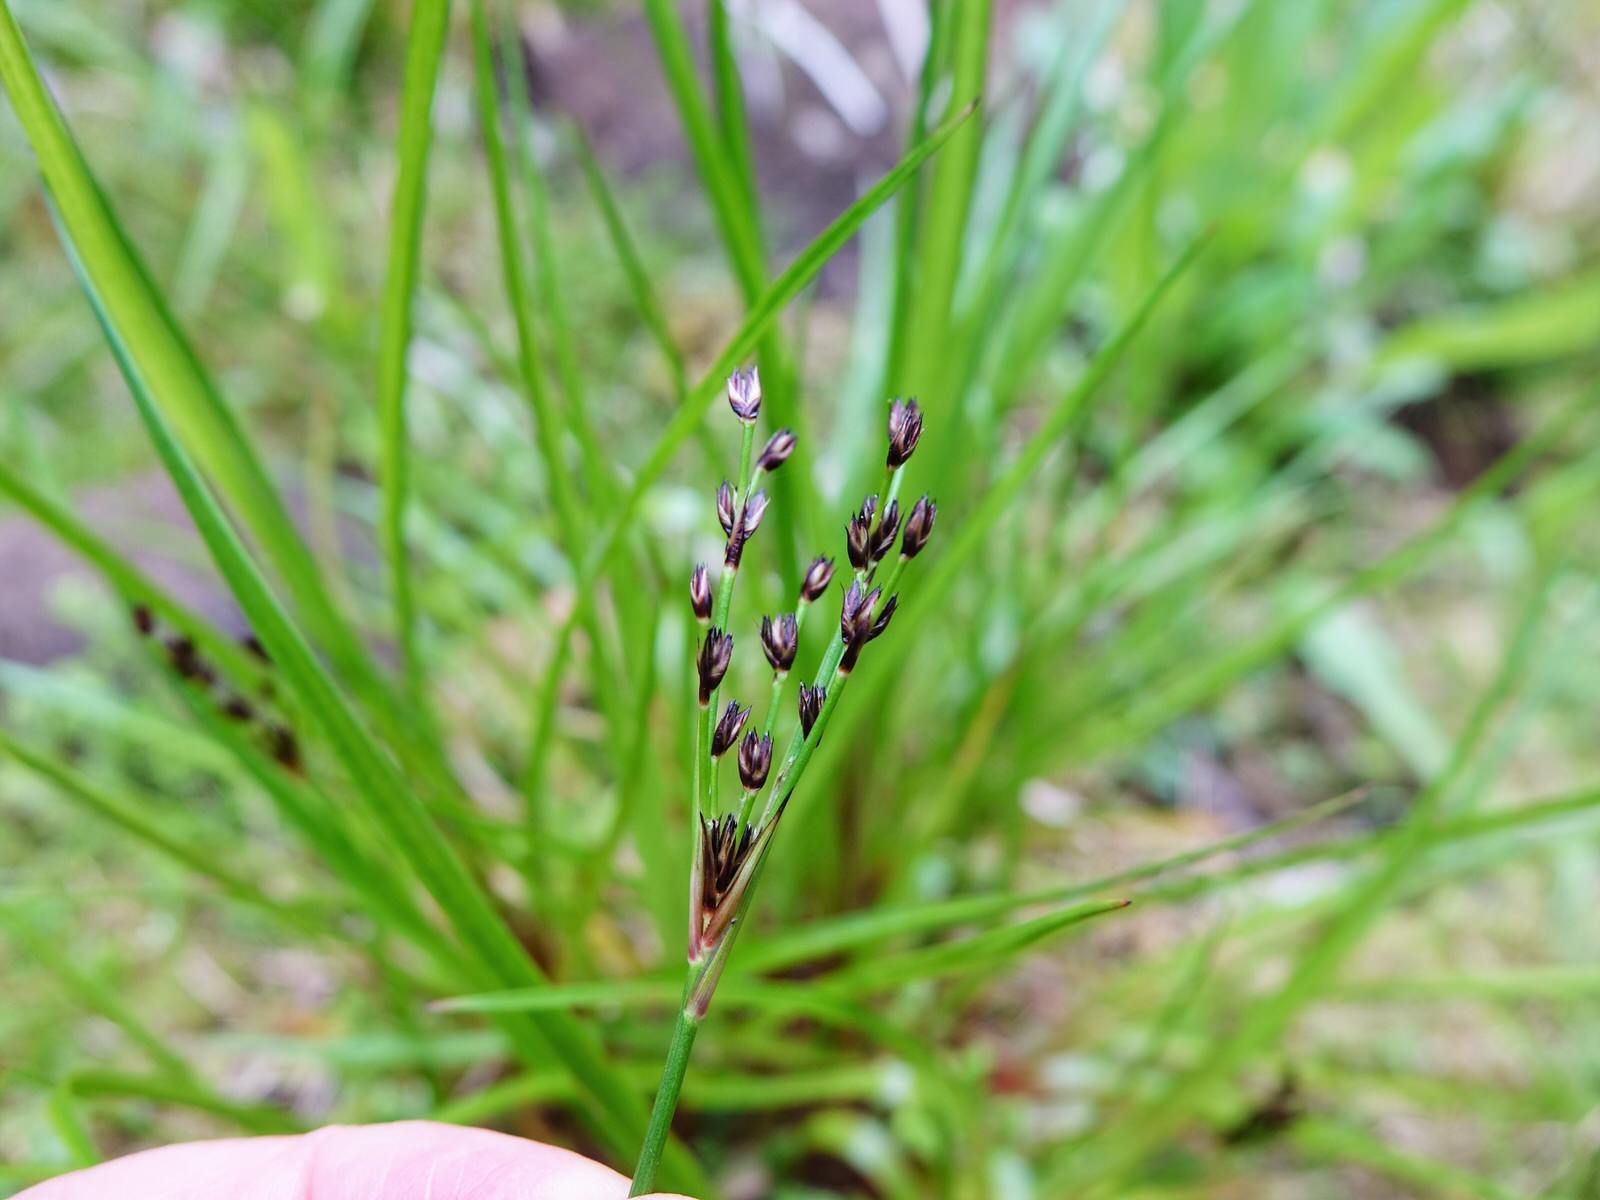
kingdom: Plantae
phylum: Tracheophyta
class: Liliopsida
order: Poales
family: Juncaceae
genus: Juncus
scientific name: Juncus planifolius
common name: Broadleaf rush
